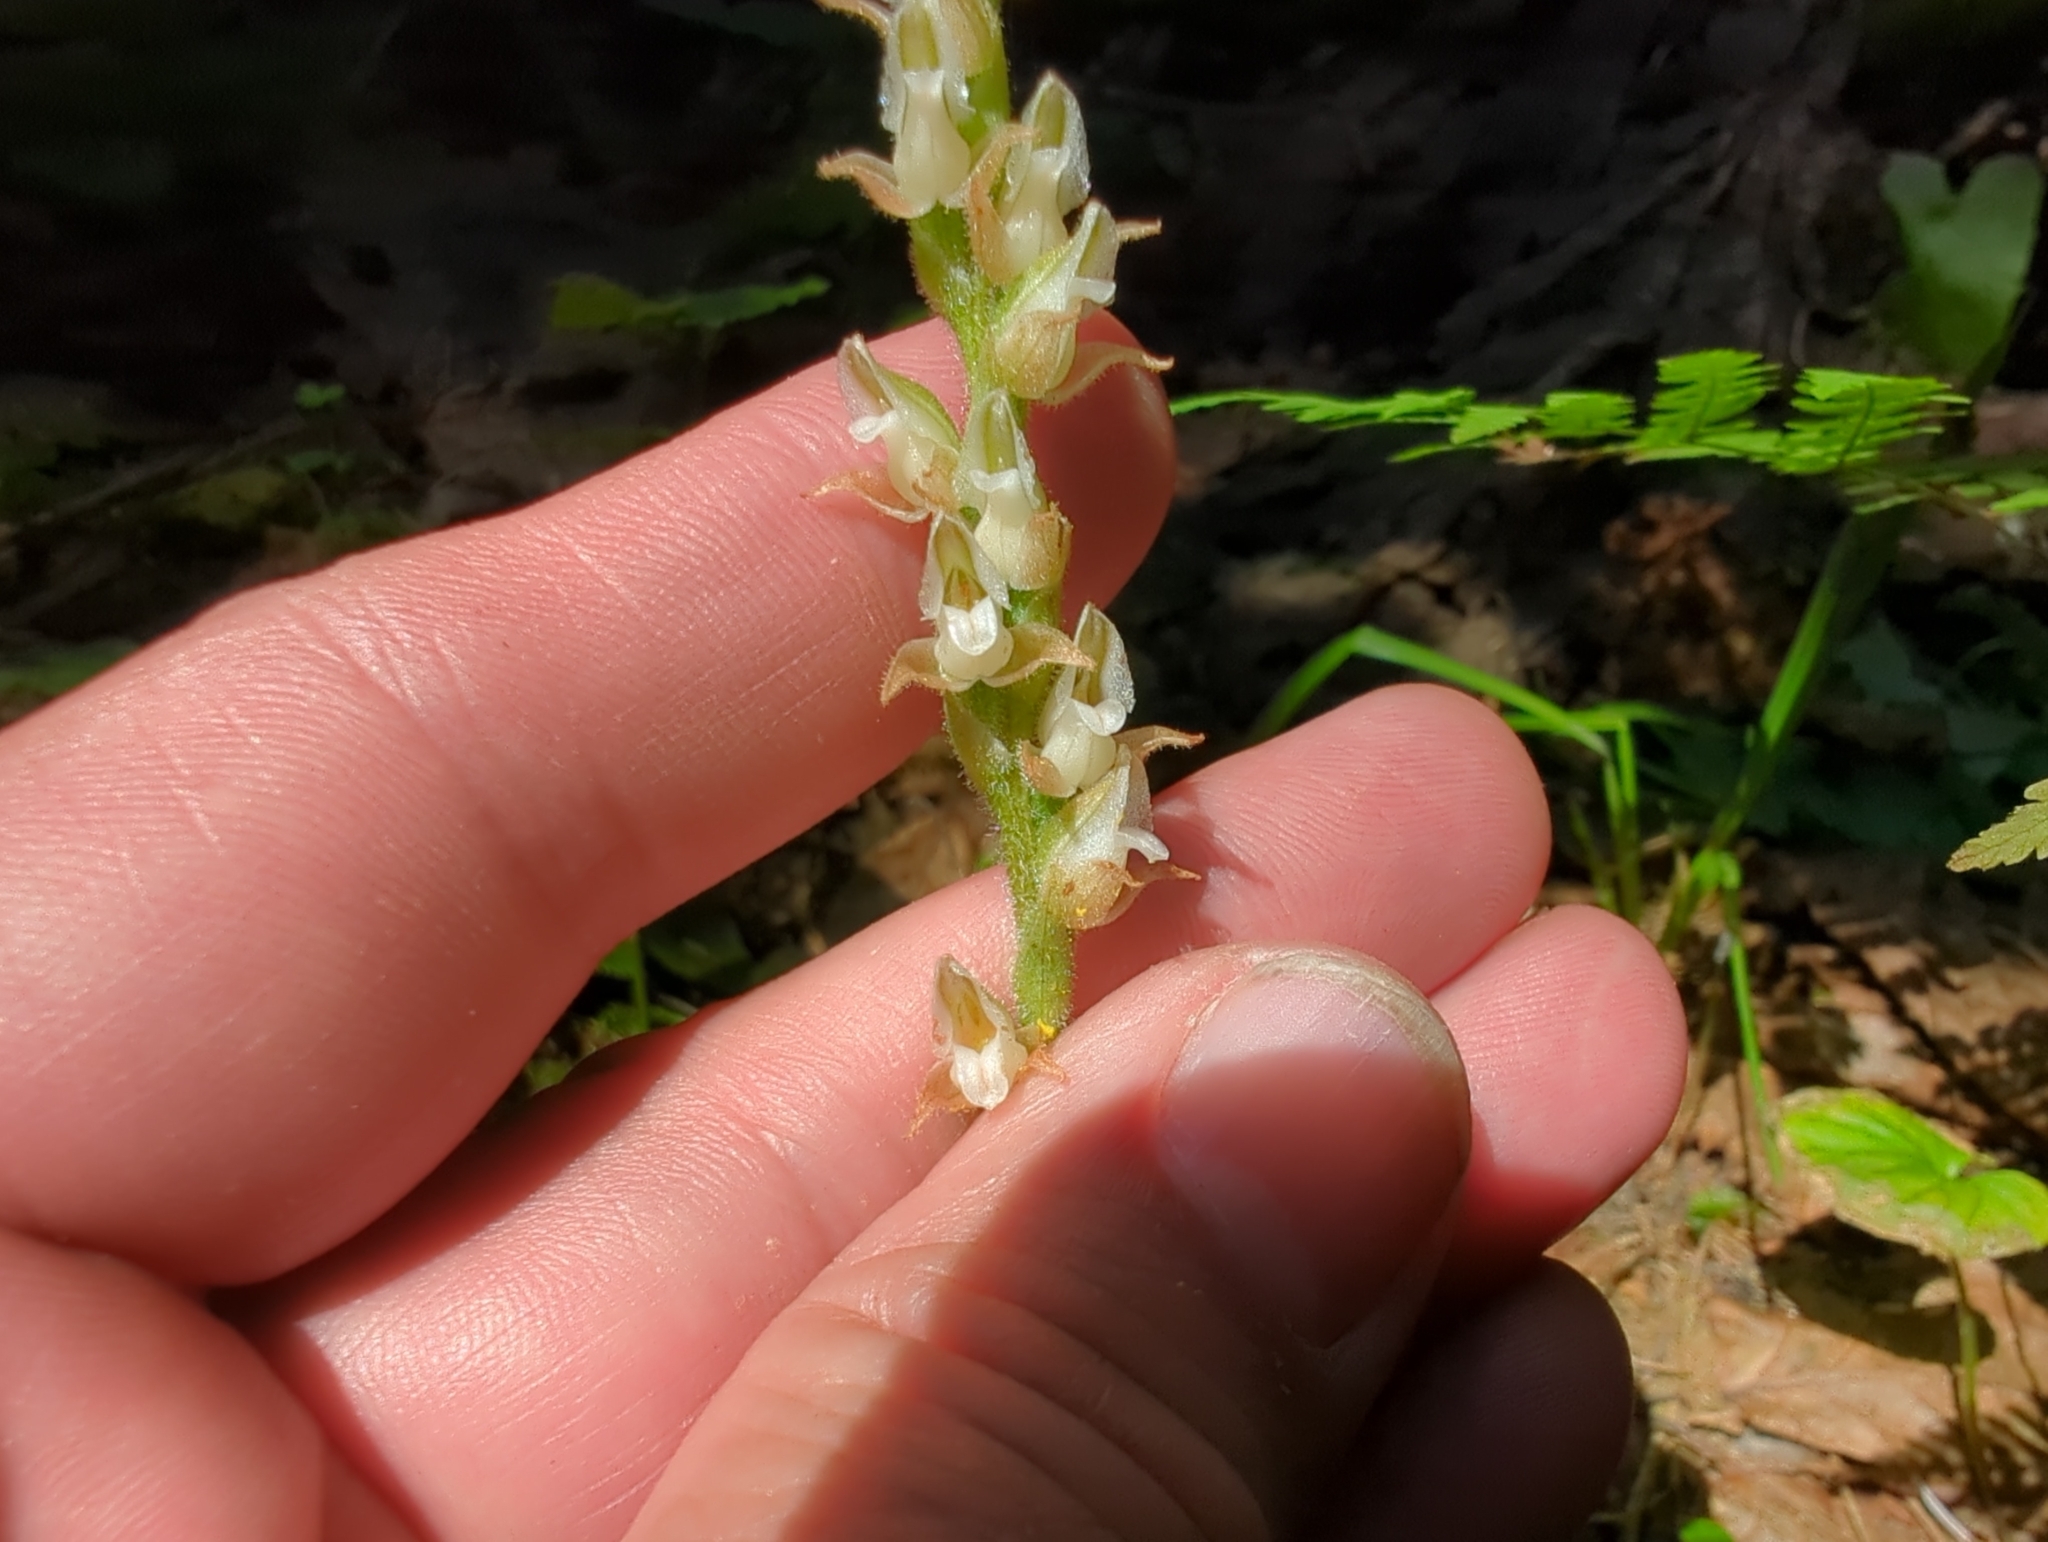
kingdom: Plantae
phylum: Tracheophyta
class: Liliopsida
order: Asparagales
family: Orchidaceae
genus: Goodyera
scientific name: Goodyera oblongifolia
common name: Giant rattlesnake-plantain
